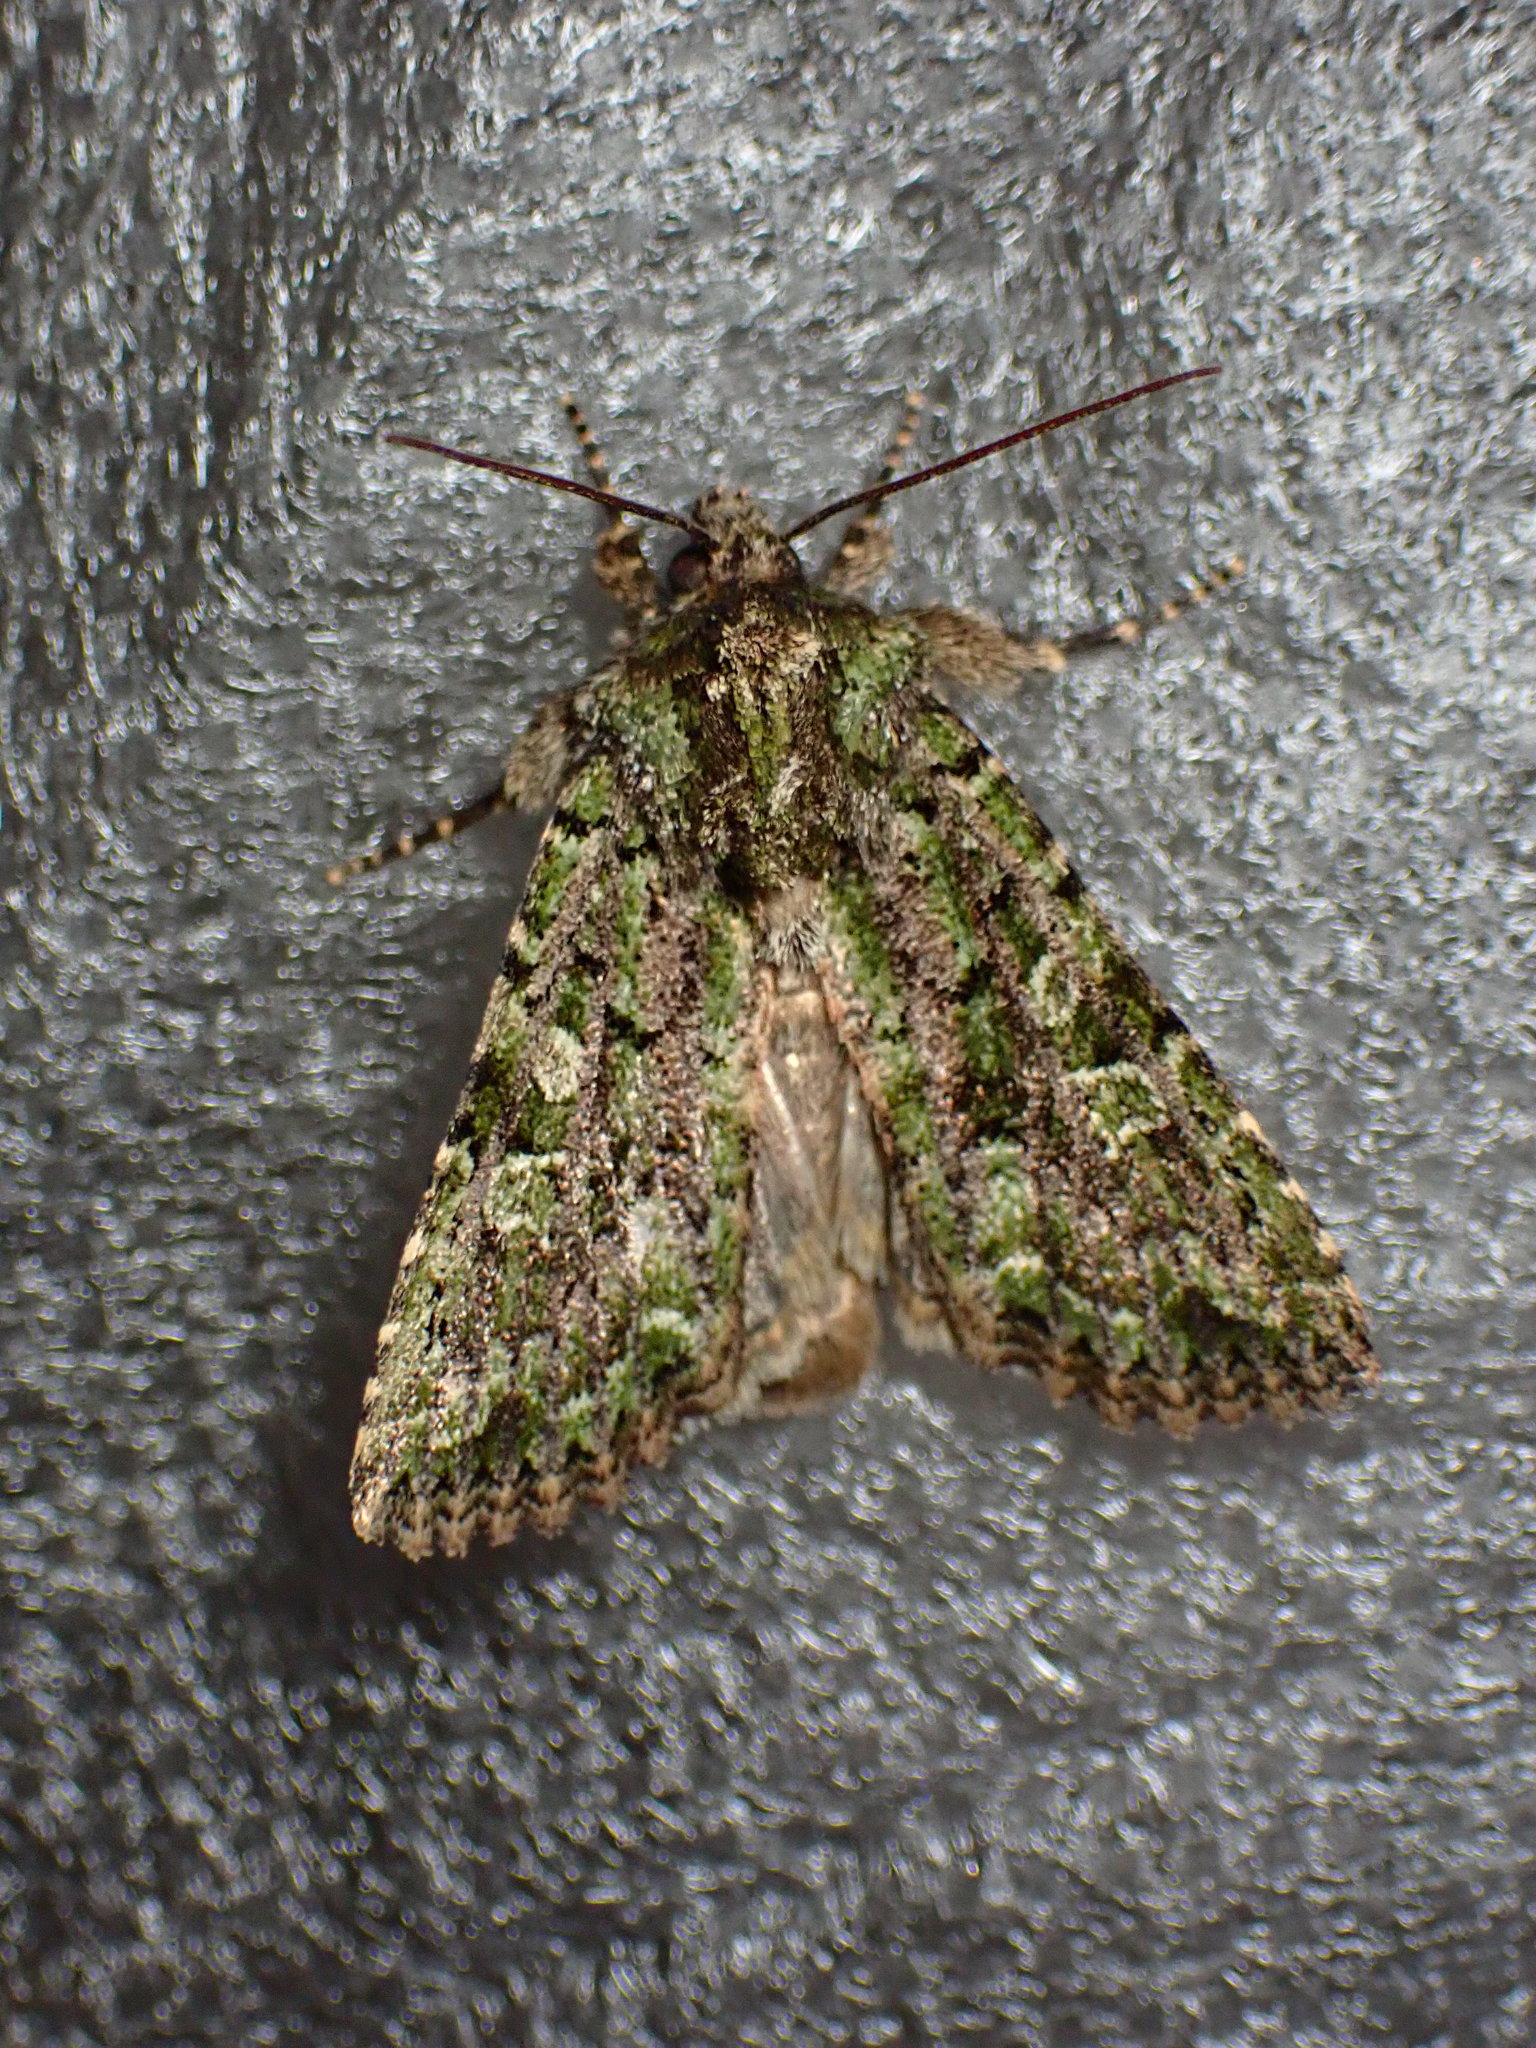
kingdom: Animalia
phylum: Arthropoda
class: Insecta
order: Lepidoptera
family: Noctuidae
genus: Aseptis
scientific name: Aseptis marina
